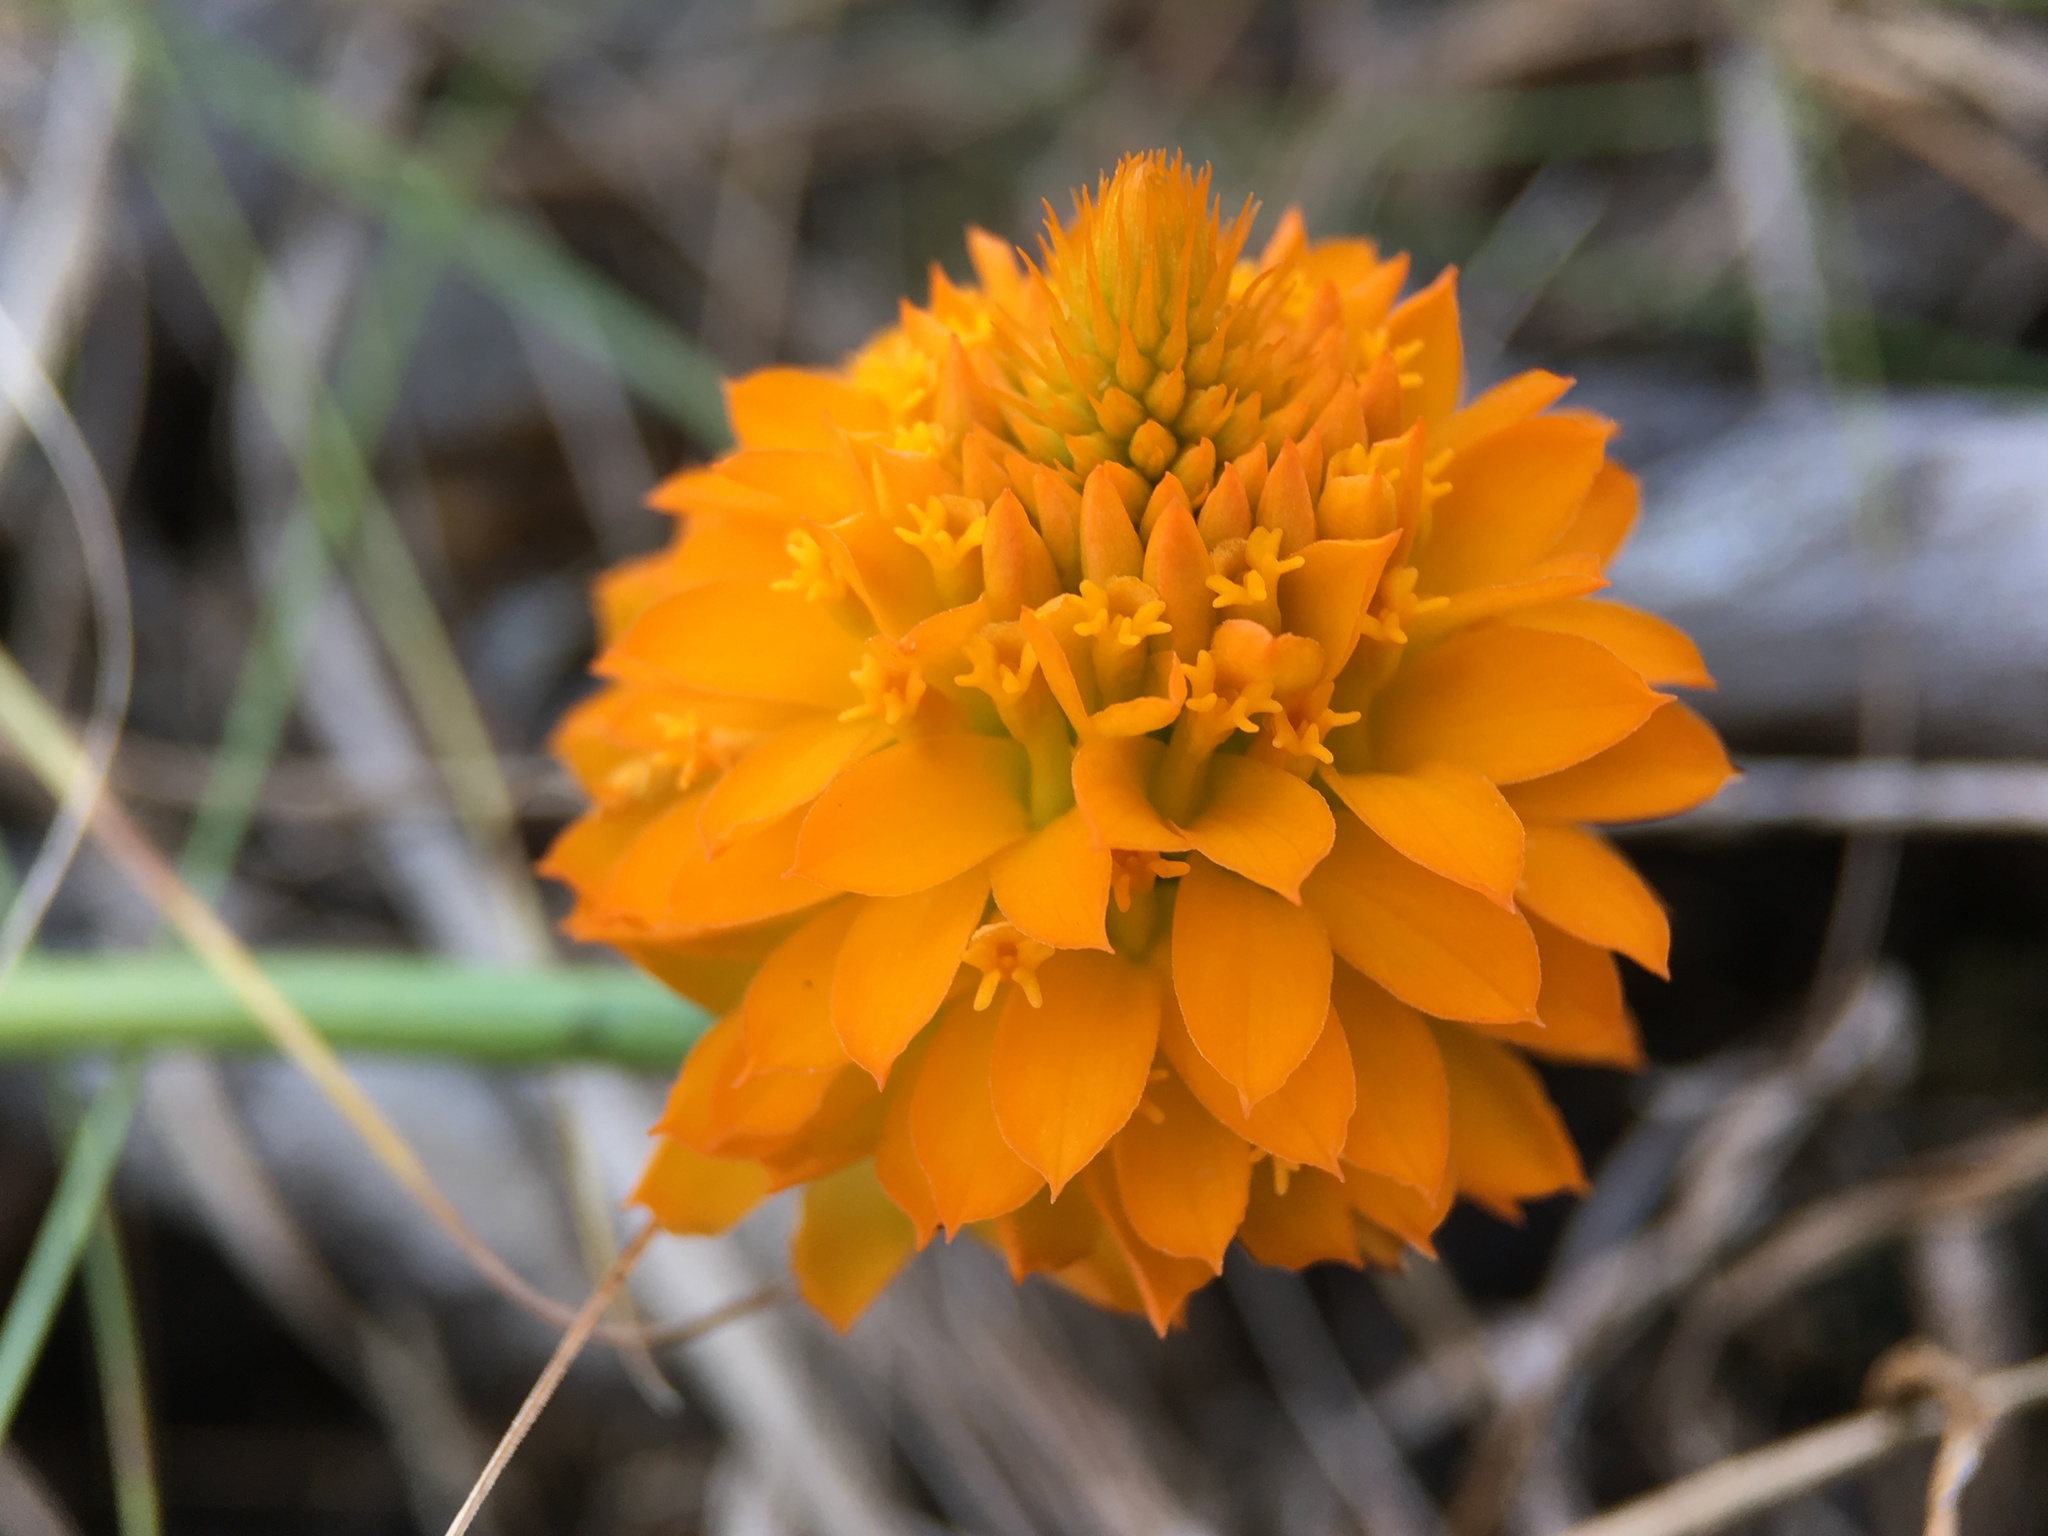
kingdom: Plantae
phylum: Tracheophyta
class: Magnoliopsida
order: Fabales
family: Polygalaceae
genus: Polygala
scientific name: Polygala lutea
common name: Orange milkwort
